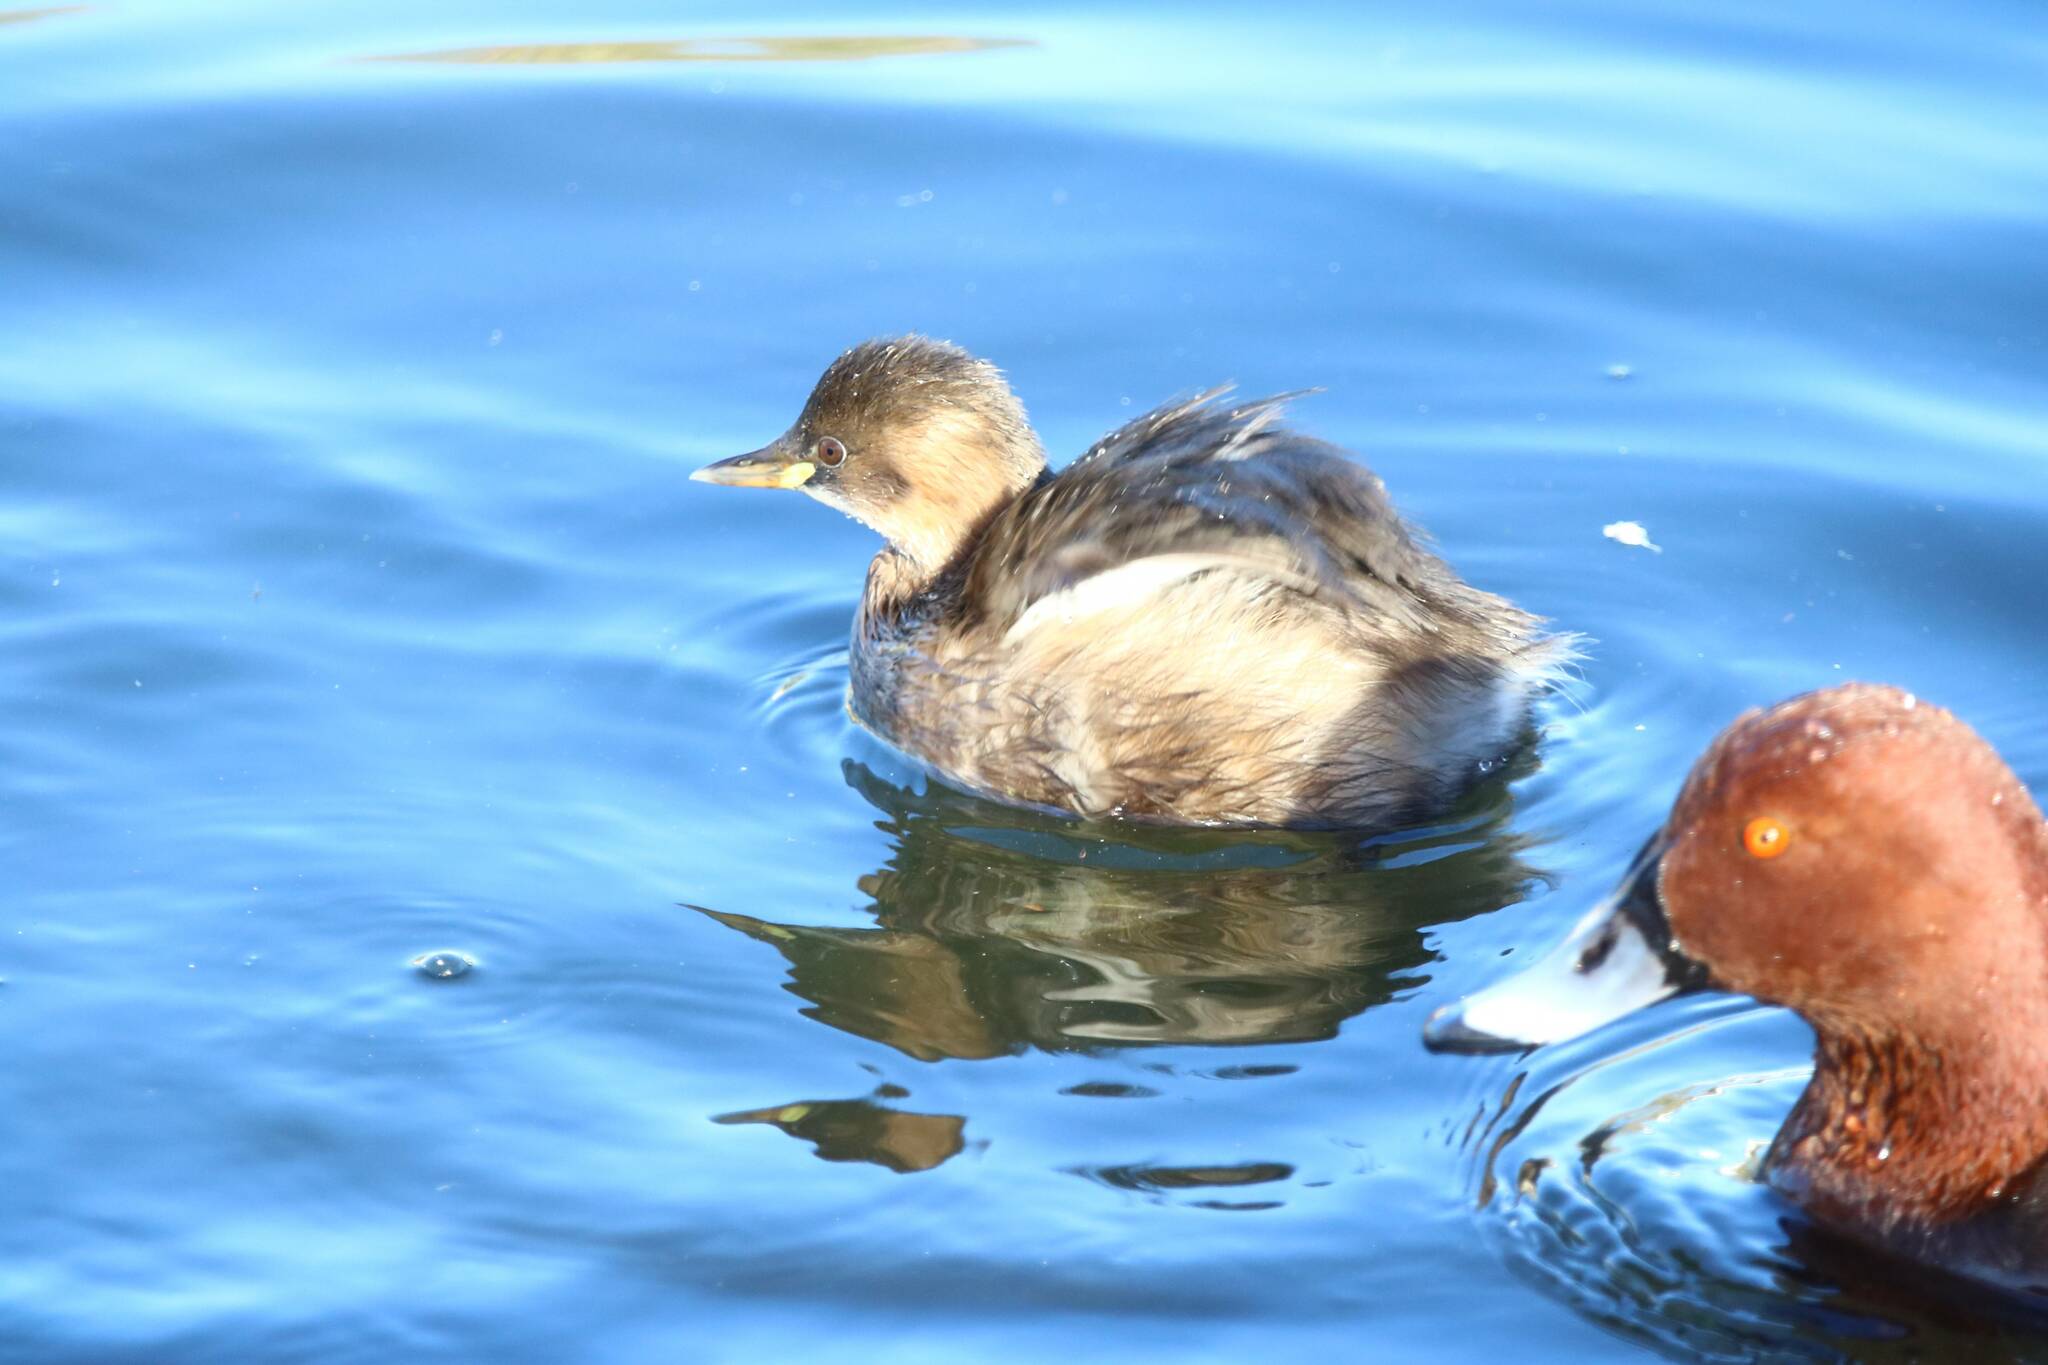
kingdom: Animalia
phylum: Chordata
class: Aves
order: Podicipediformes
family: Podicipedidae
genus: Tachybaptus
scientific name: Tachybaptus ruficollis
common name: Little grebe
